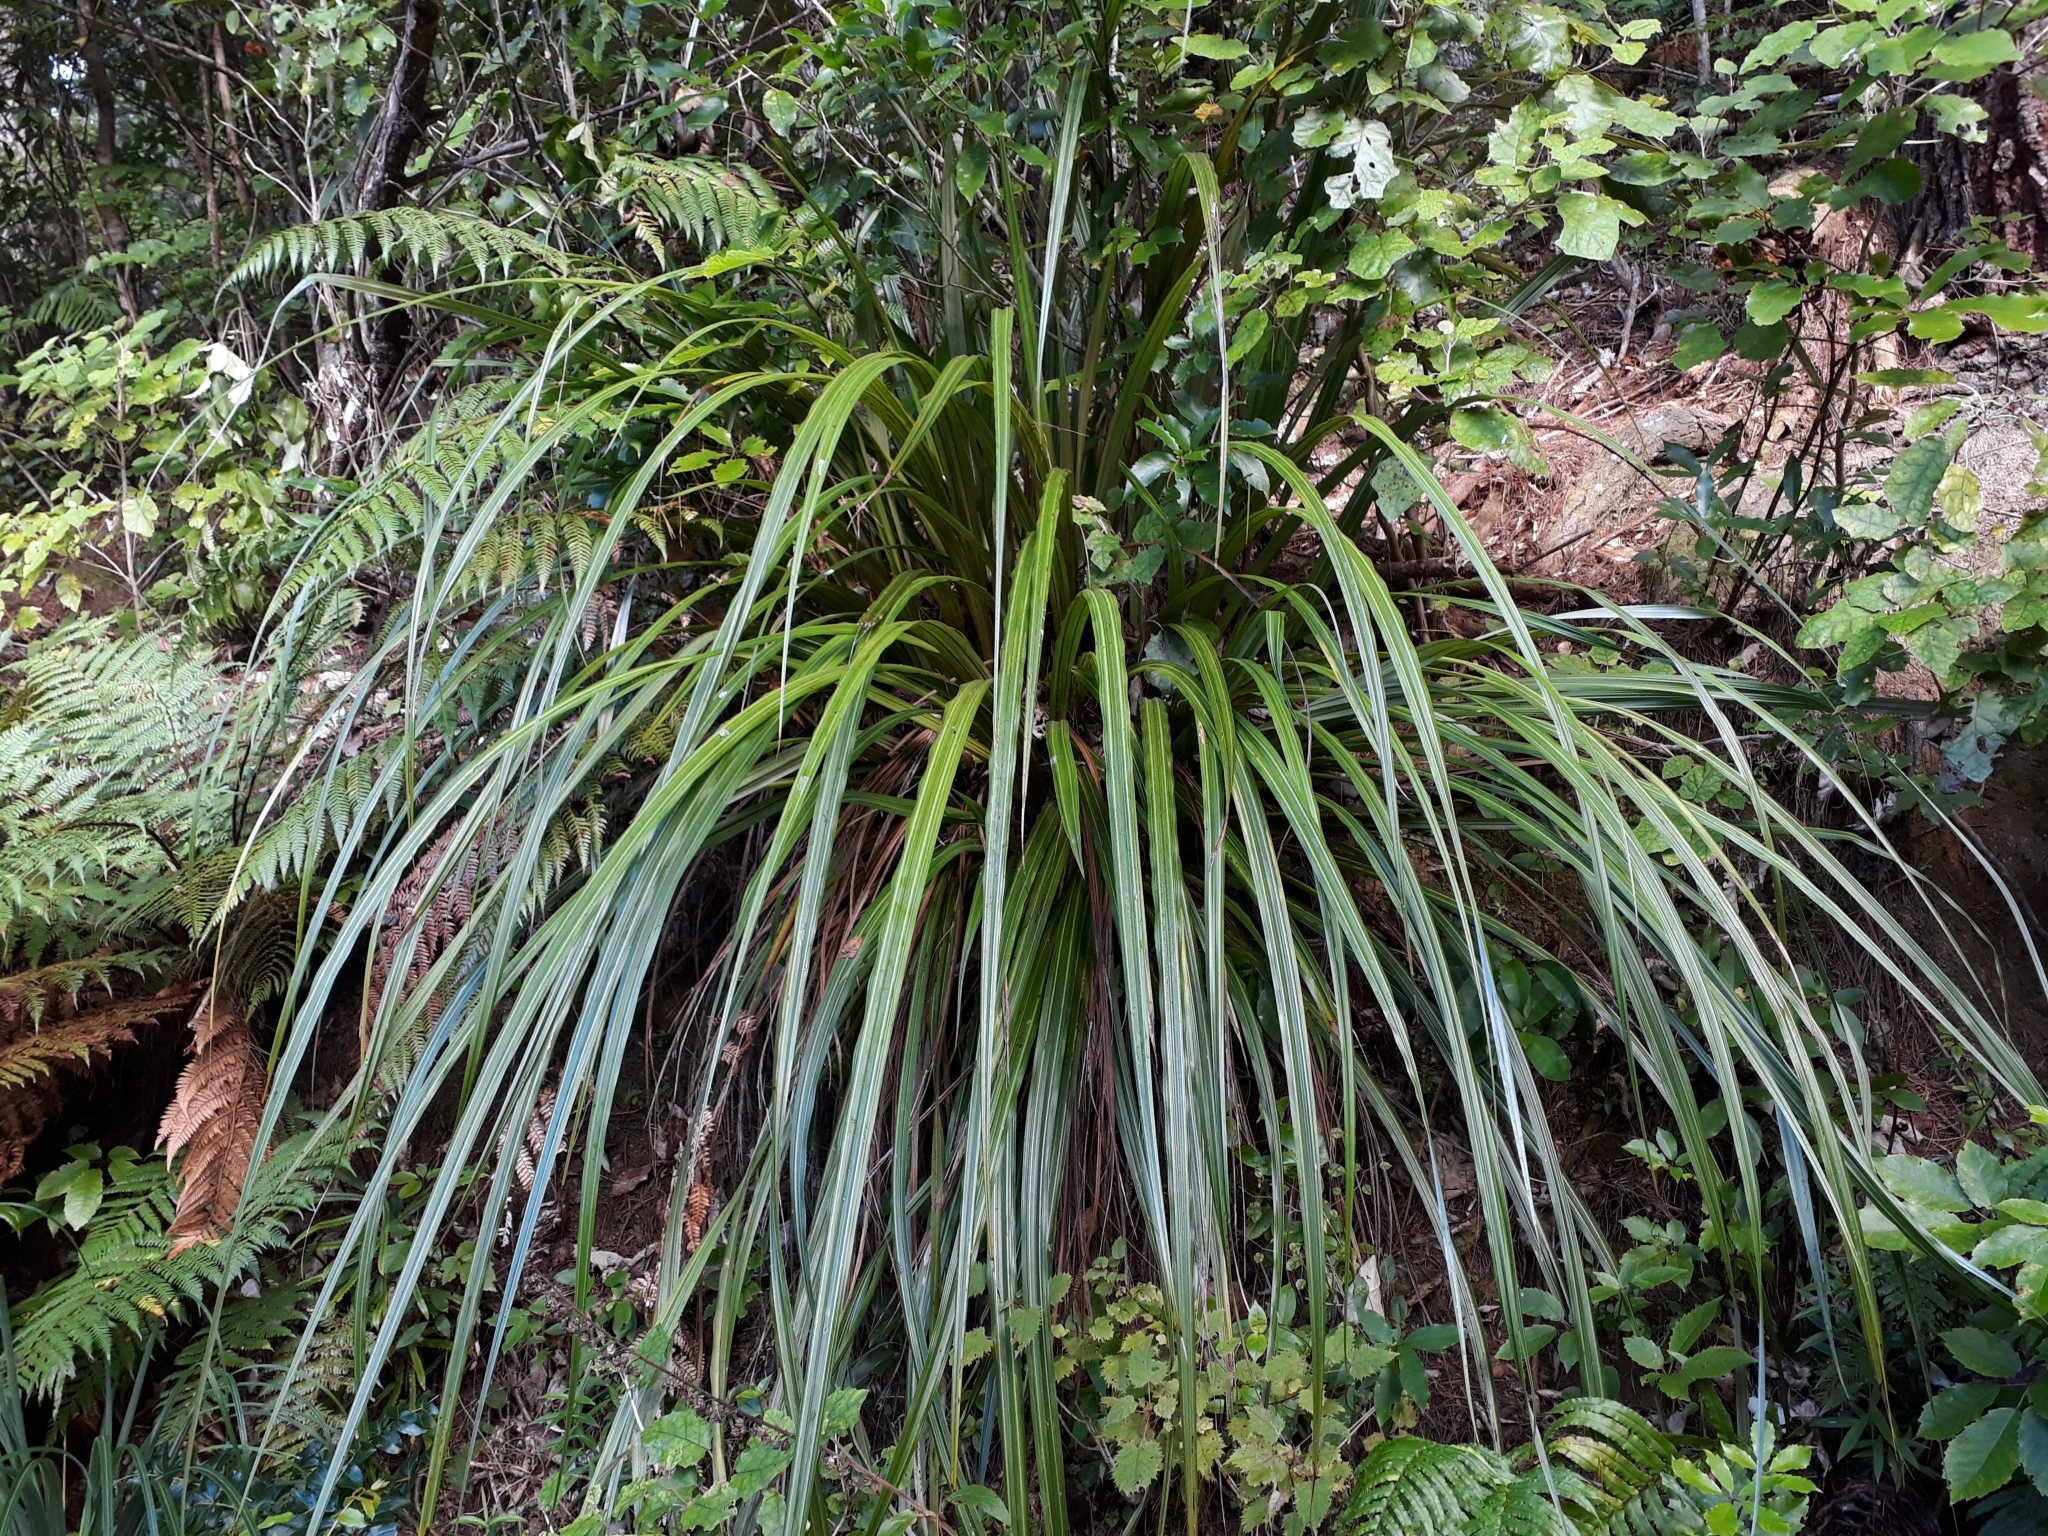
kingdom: Plantae
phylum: Tracheophyta
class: Liliopsida
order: Asparagales
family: Asteliaceae
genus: Astelia
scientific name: Astelia fragrans
